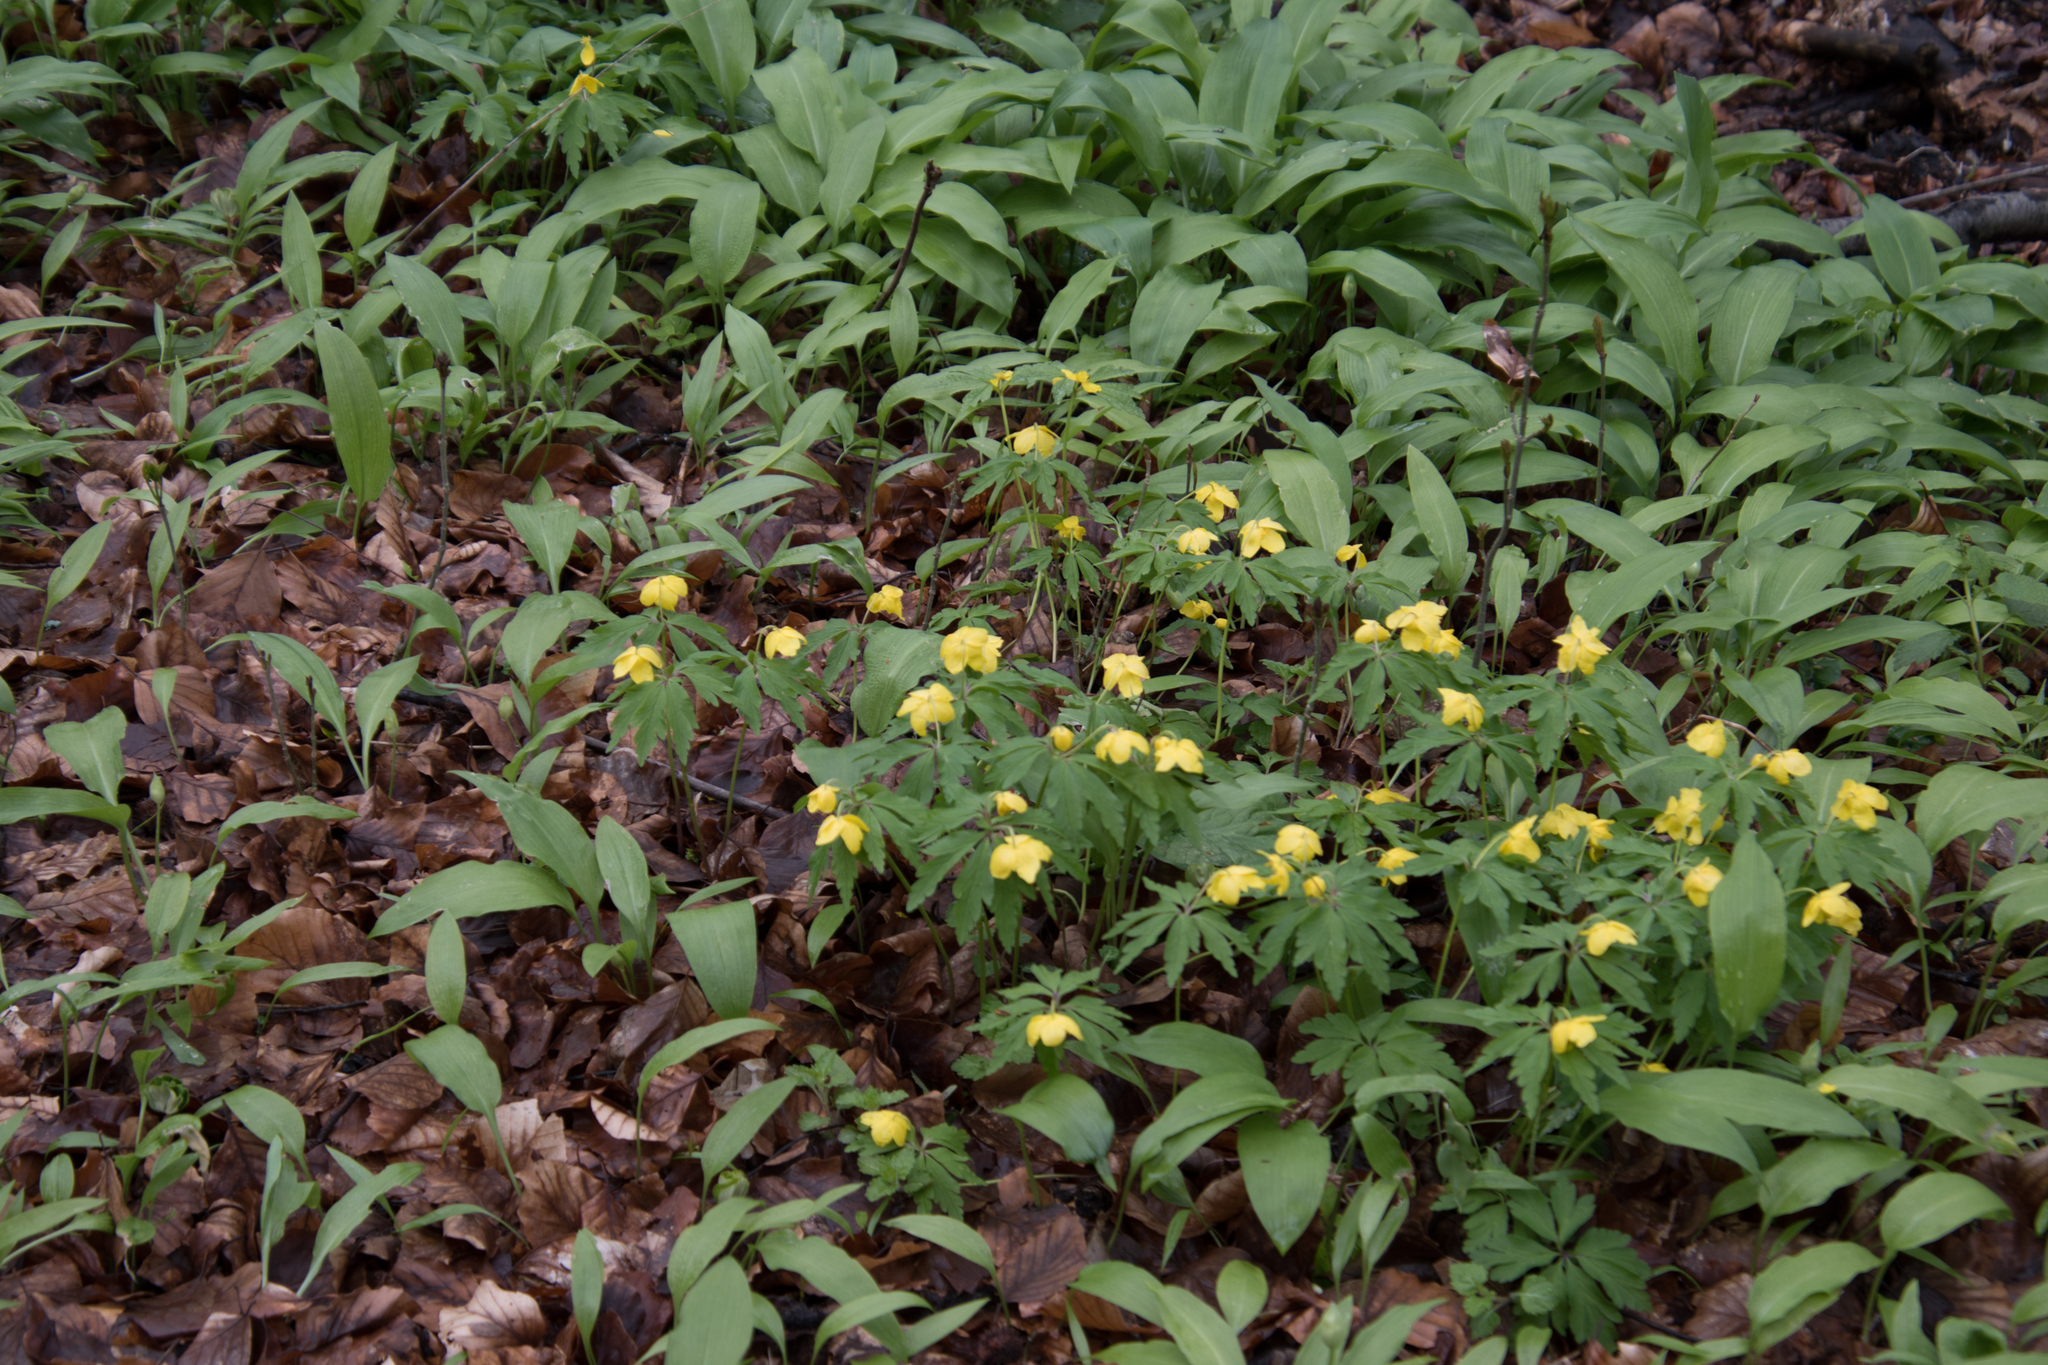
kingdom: Plantae
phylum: Tracheophyta
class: Magnoliopsida
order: Ranunculales
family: Ranunculaceae
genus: Anemone
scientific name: Anemone ranunculoides
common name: Yellow anemone
